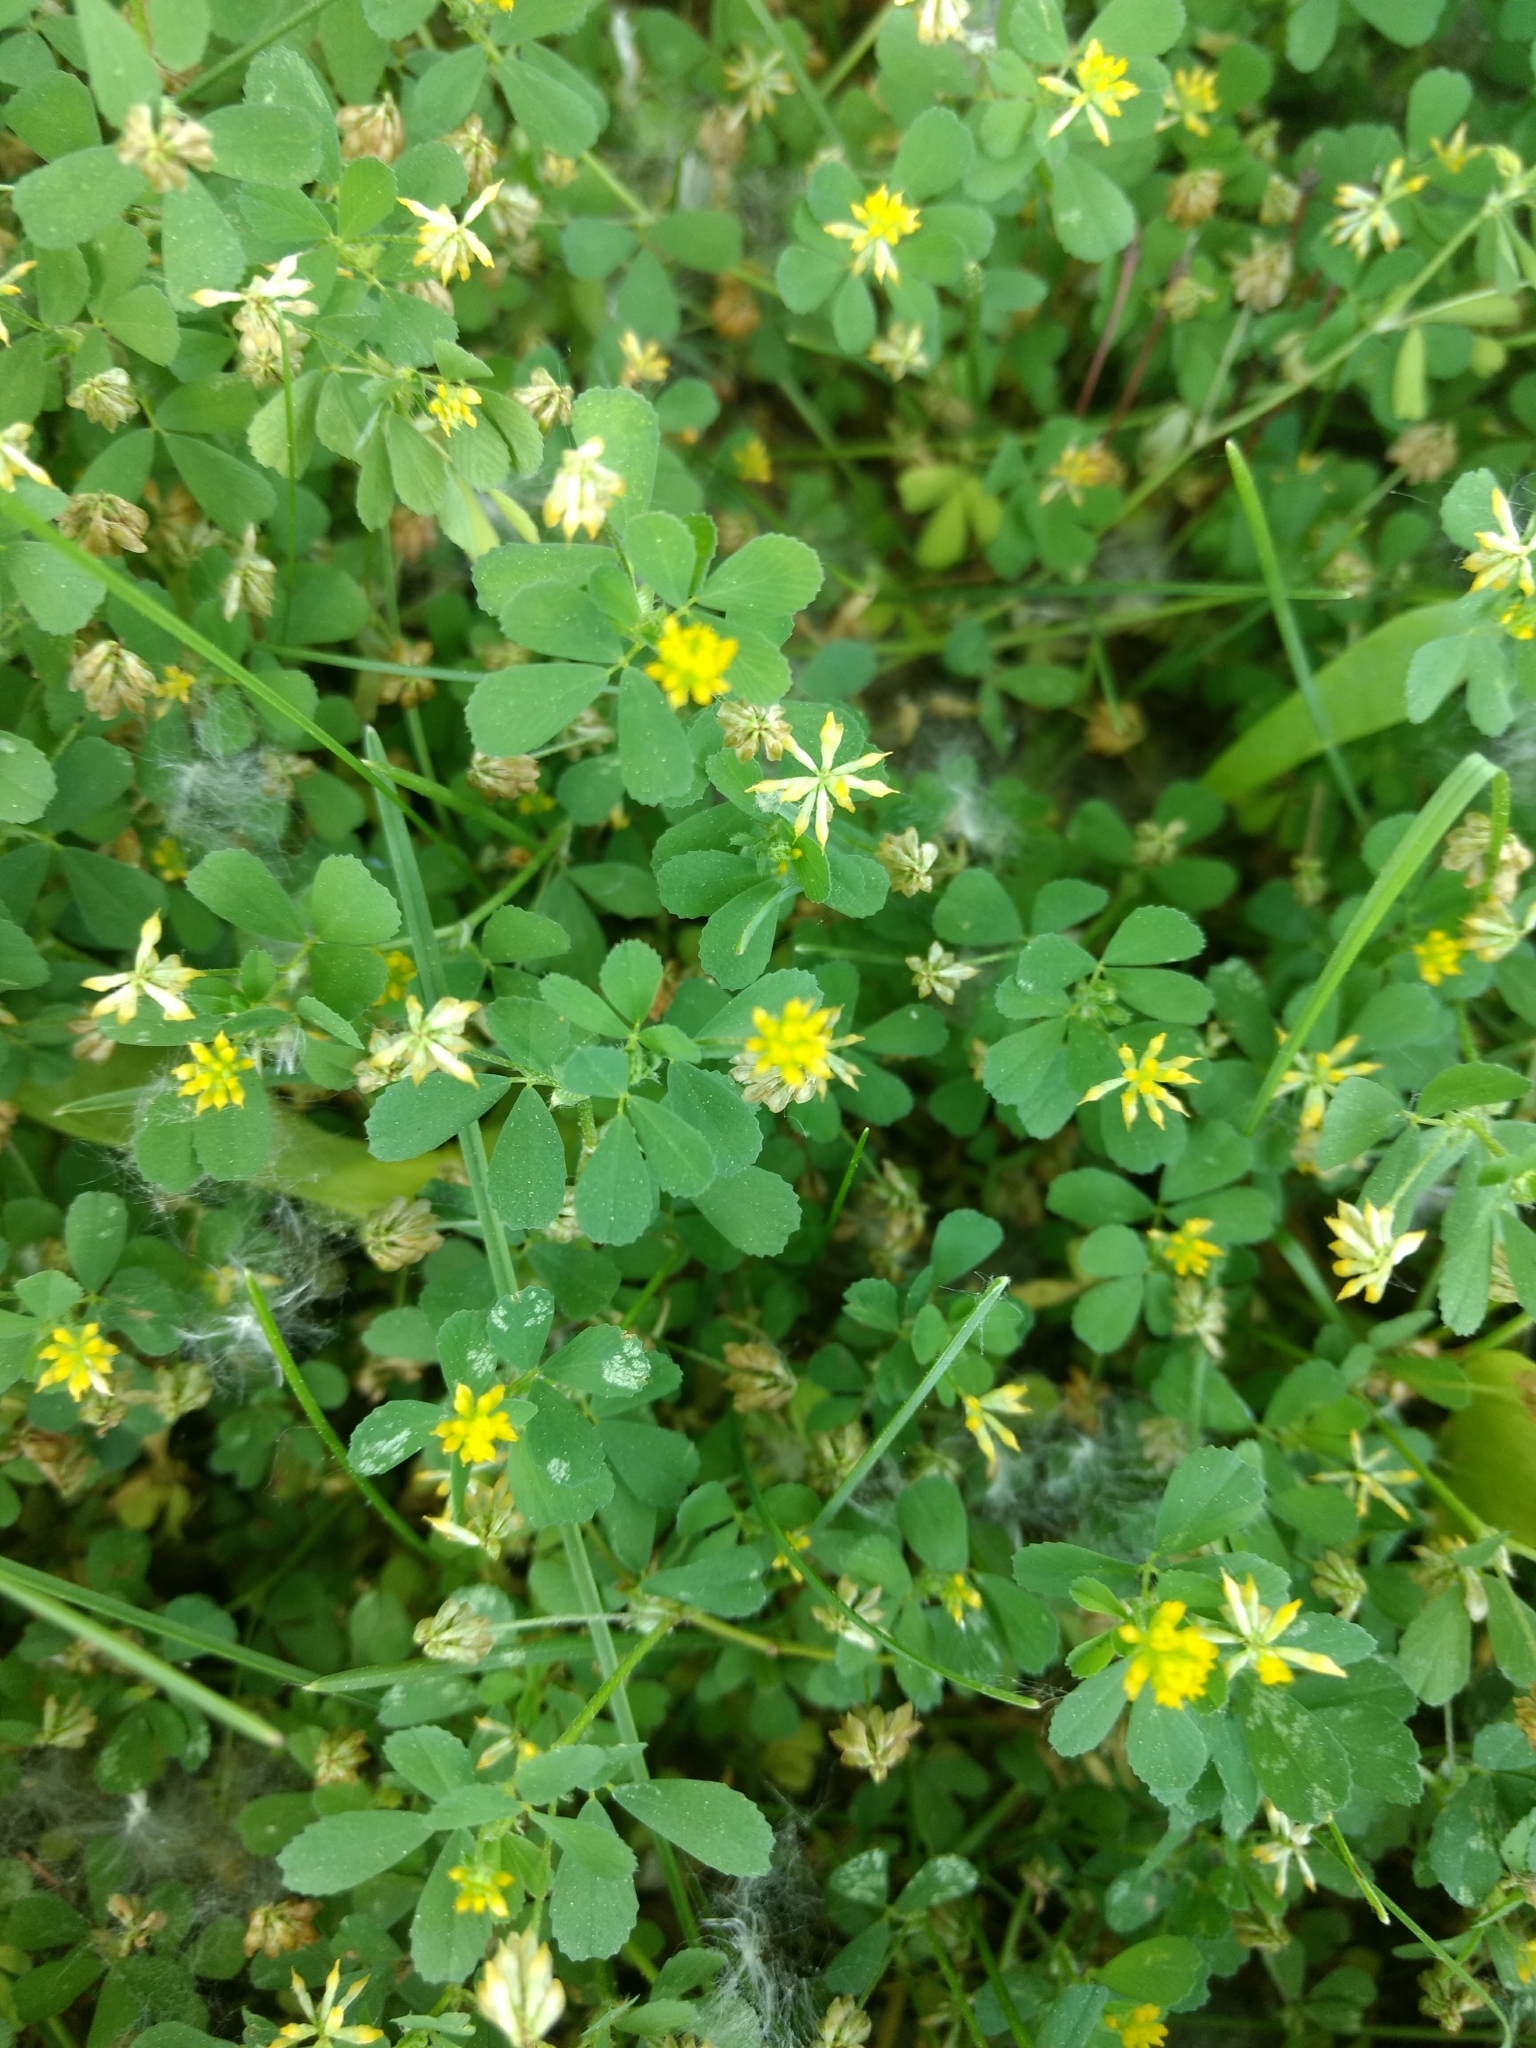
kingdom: Plantae
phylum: Tracheophyta
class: Magnoliopsida
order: Fabales
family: Fabaceae
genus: Trifolium
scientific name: Trifolium dubium
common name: Suckling clover
